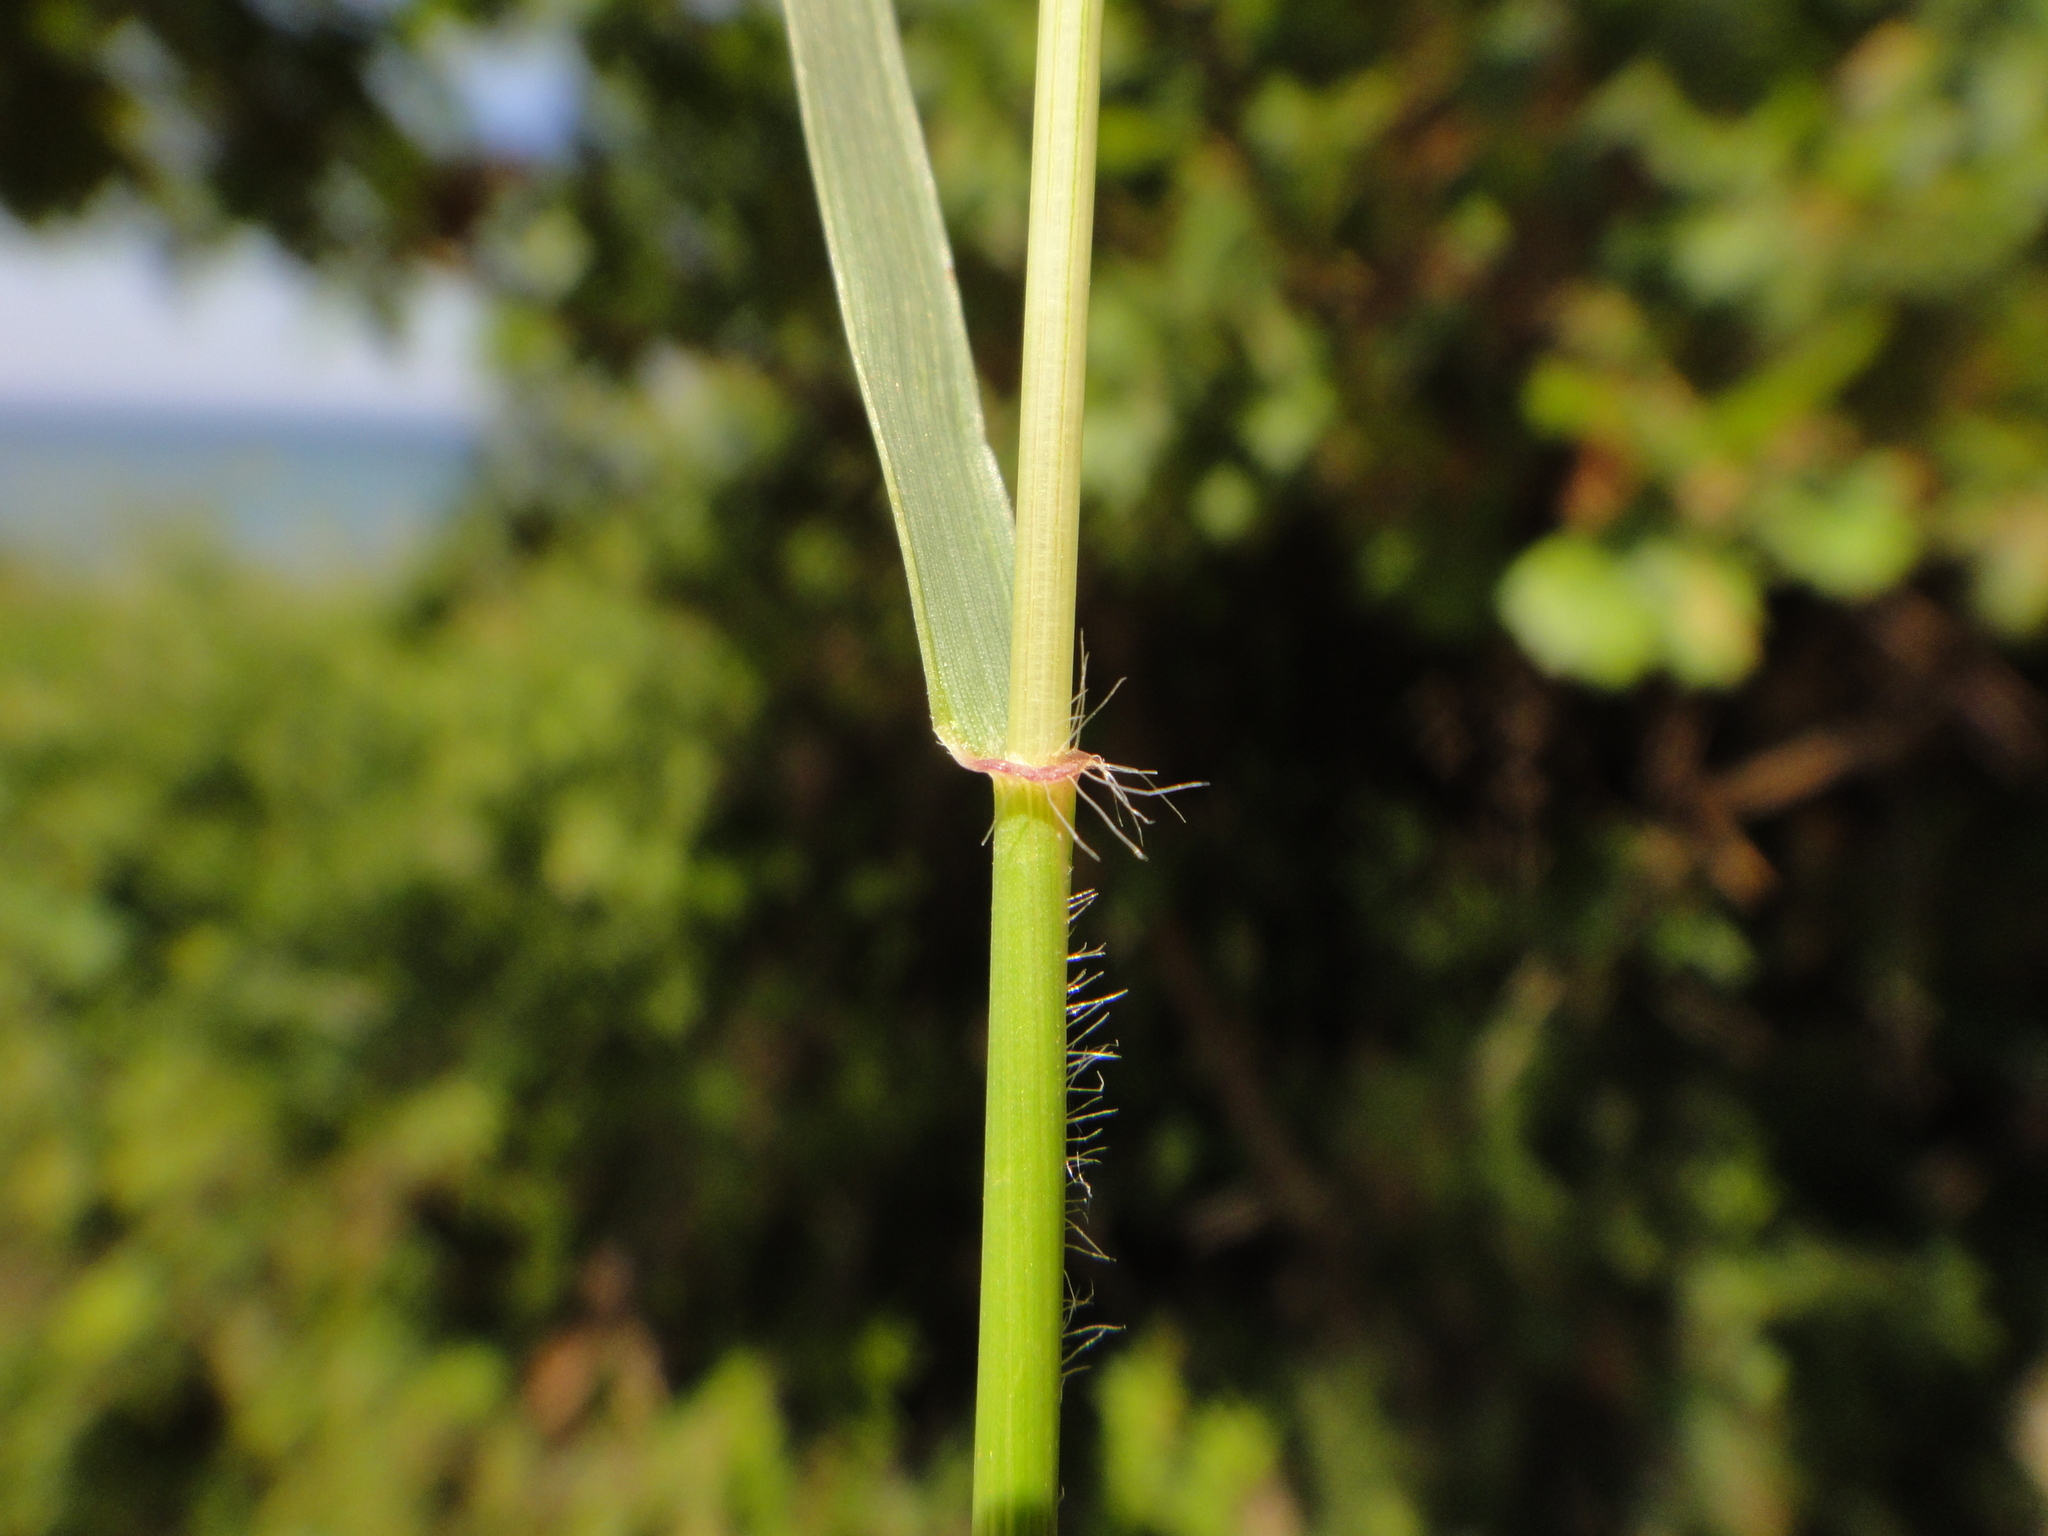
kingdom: Plantae
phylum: Tracheophyta
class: Liliopsida
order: Poales
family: Poaceae
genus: Aegilops
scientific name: Aegilops triuncialis
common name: Barb goat grass
